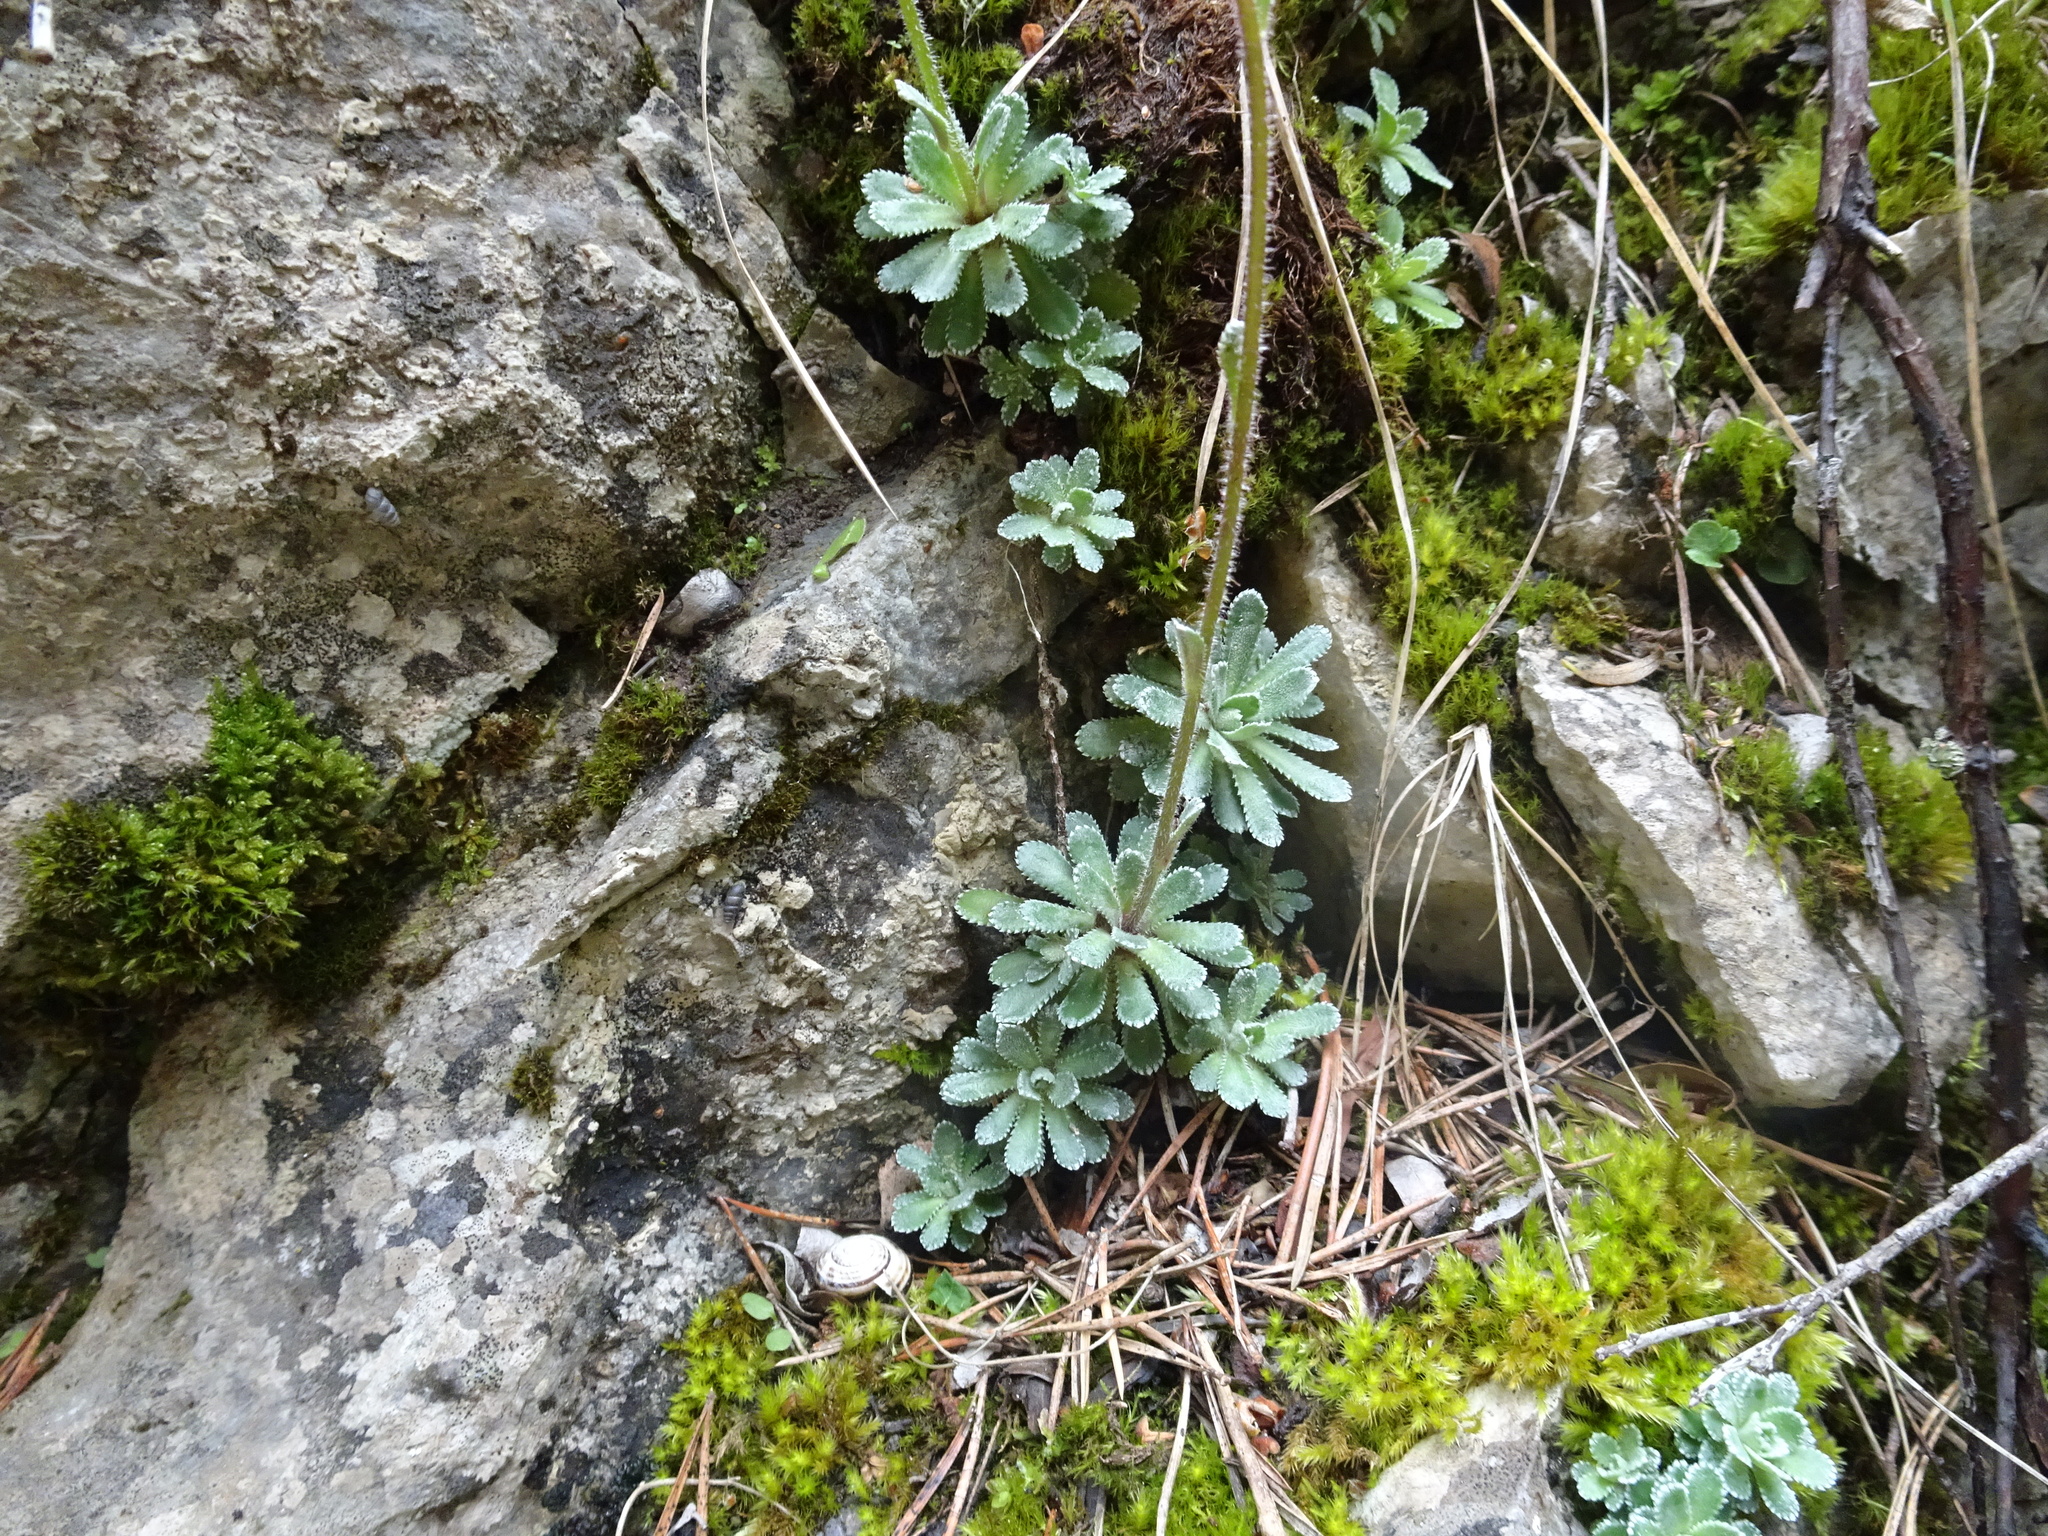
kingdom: Plantae
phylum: Tracheophyta
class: Magnoliopsida
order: Saxifragales
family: Saxifragaceae
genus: Saxifraga
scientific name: Saxifraga paniculata
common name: Livelong saxifrage
